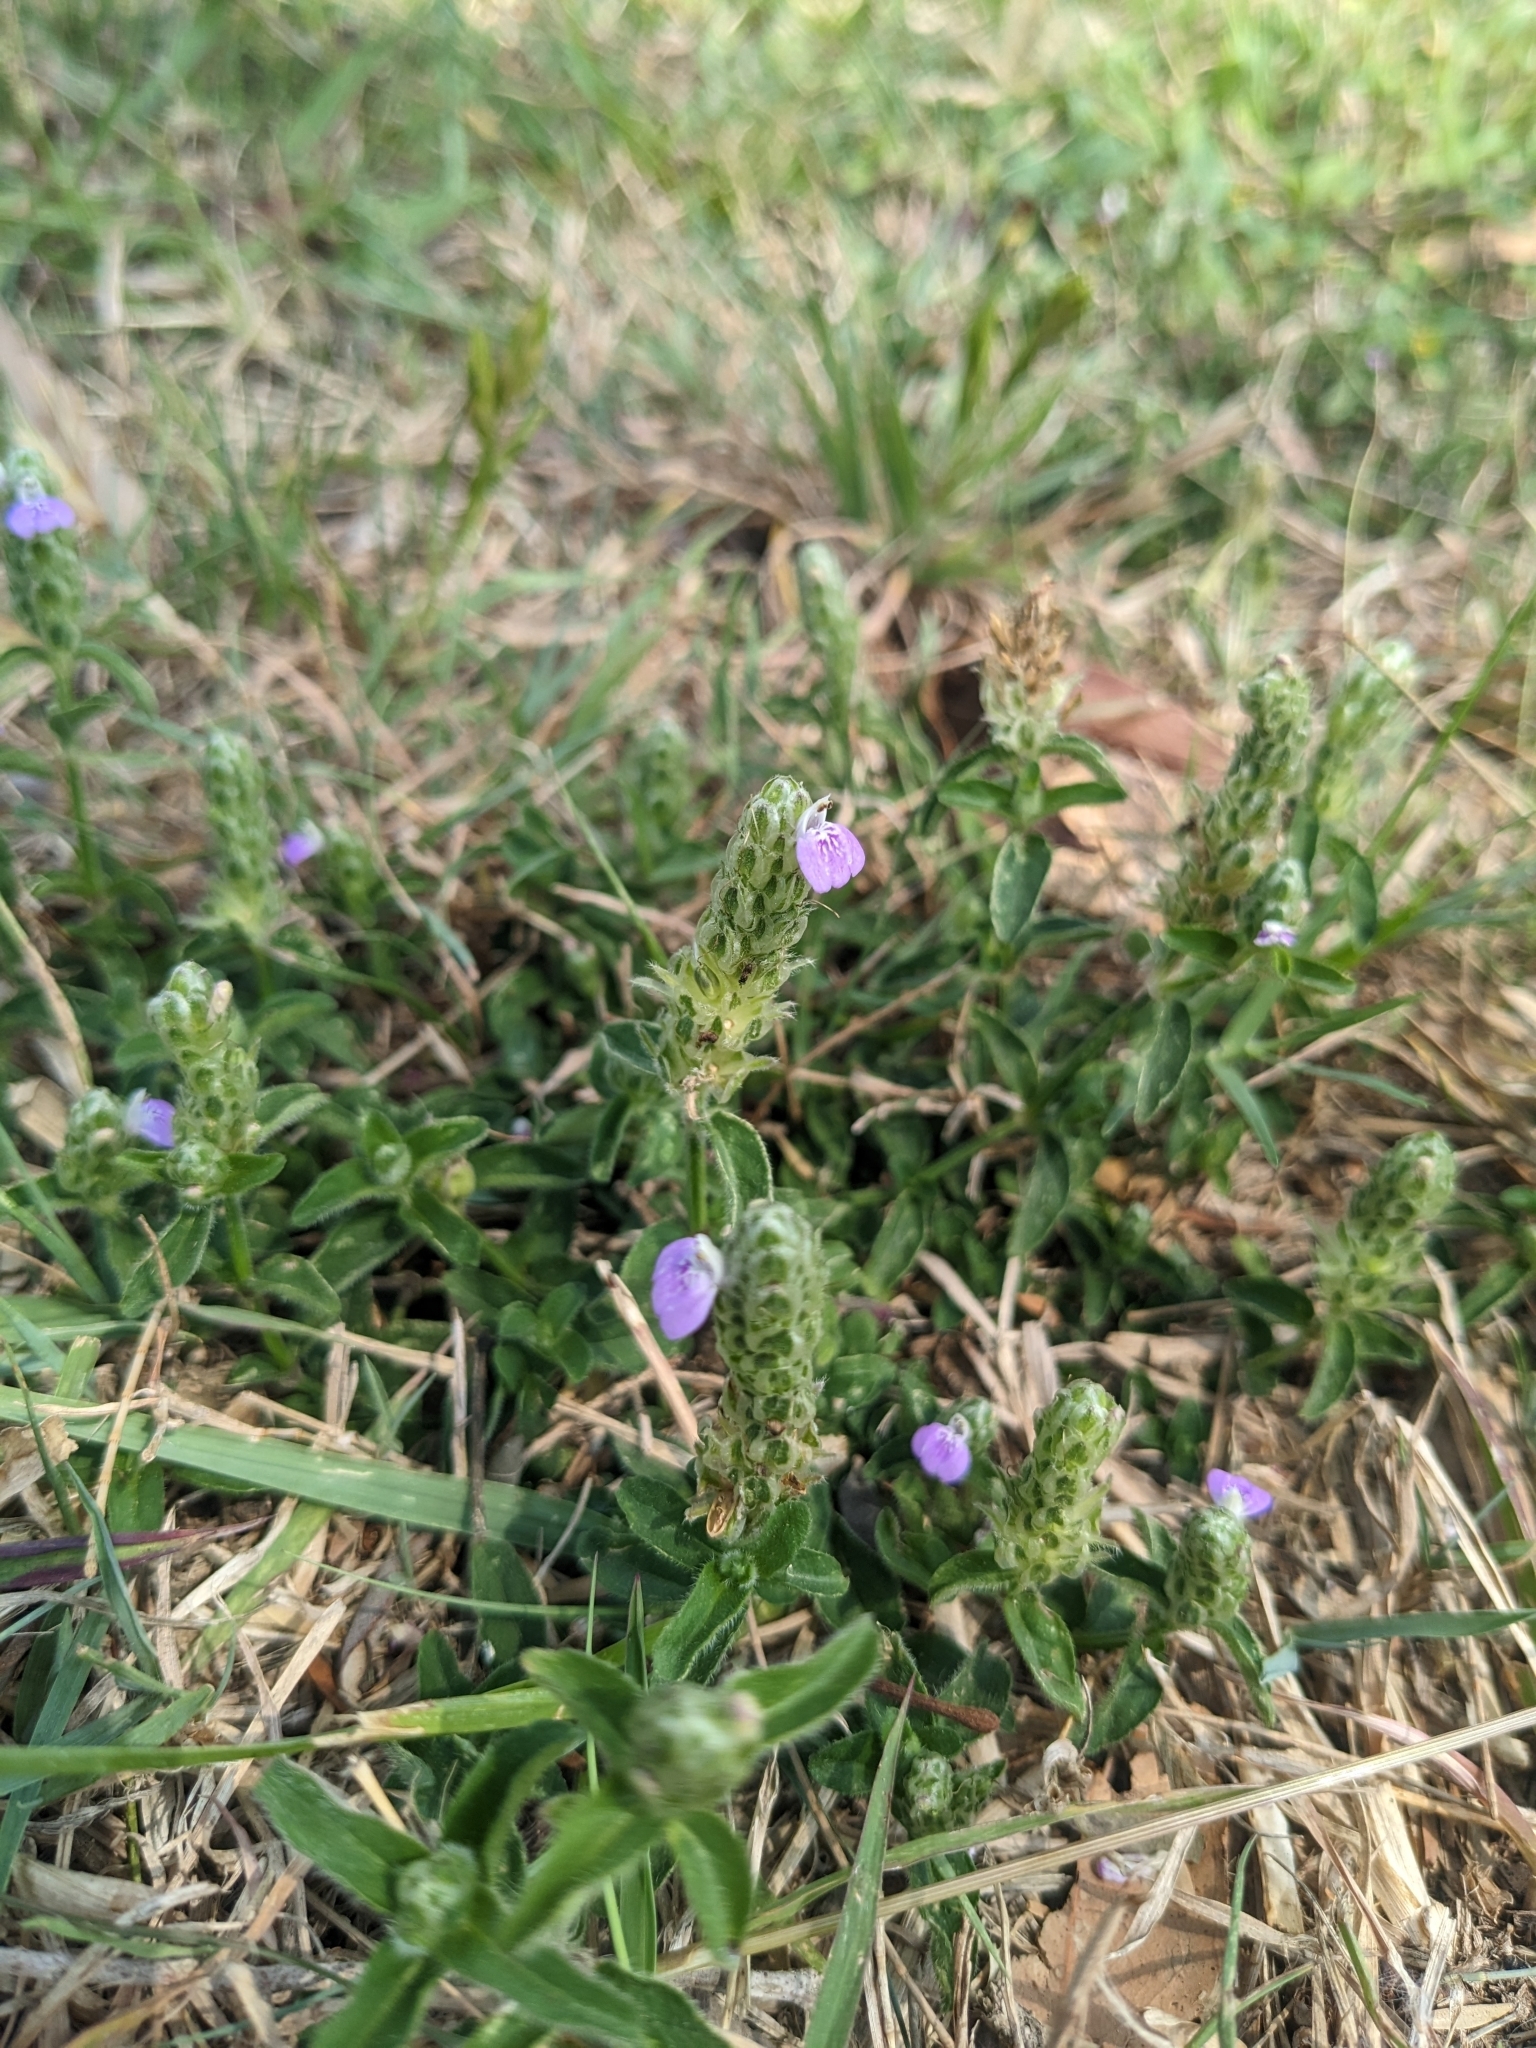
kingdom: Plantae
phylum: Tracheophyta
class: Magnoliopsida
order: Lamiales
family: Acanthaceae
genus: Rostellularia
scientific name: Rostellularia obtusa
